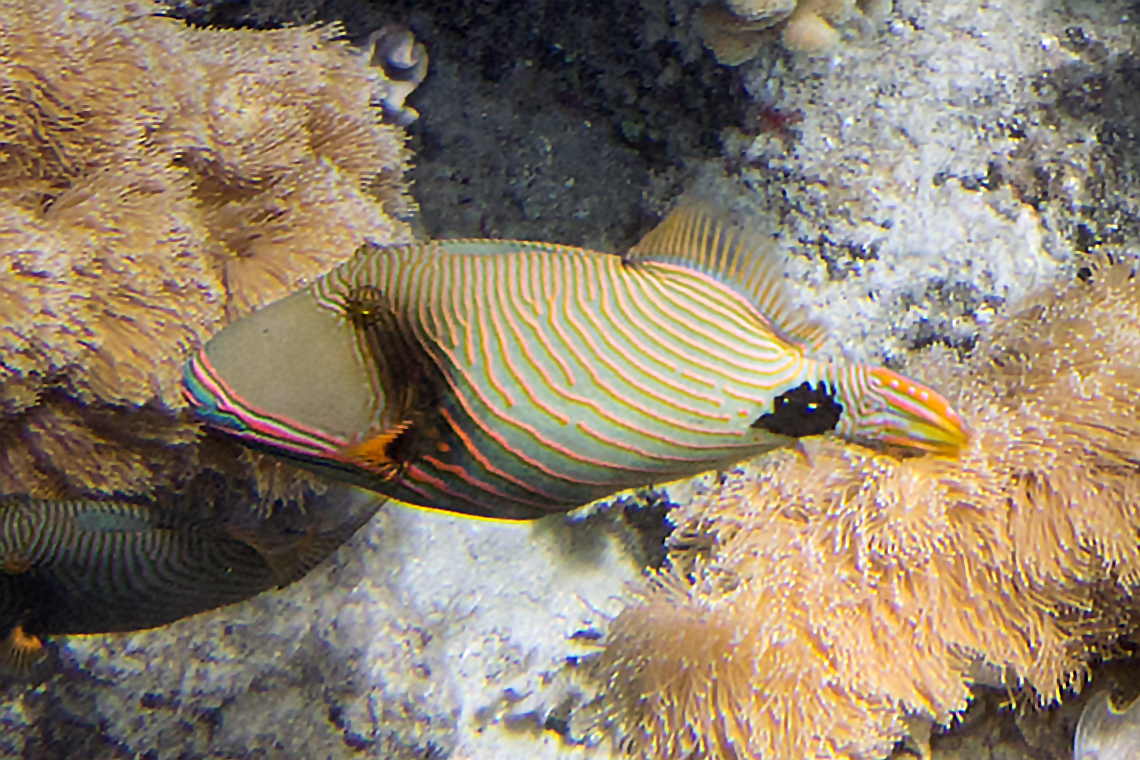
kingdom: Animalia
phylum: Chordata
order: Tetraodontiformes
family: Balistidae
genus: Balistapus
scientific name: Balistapus undulatus
